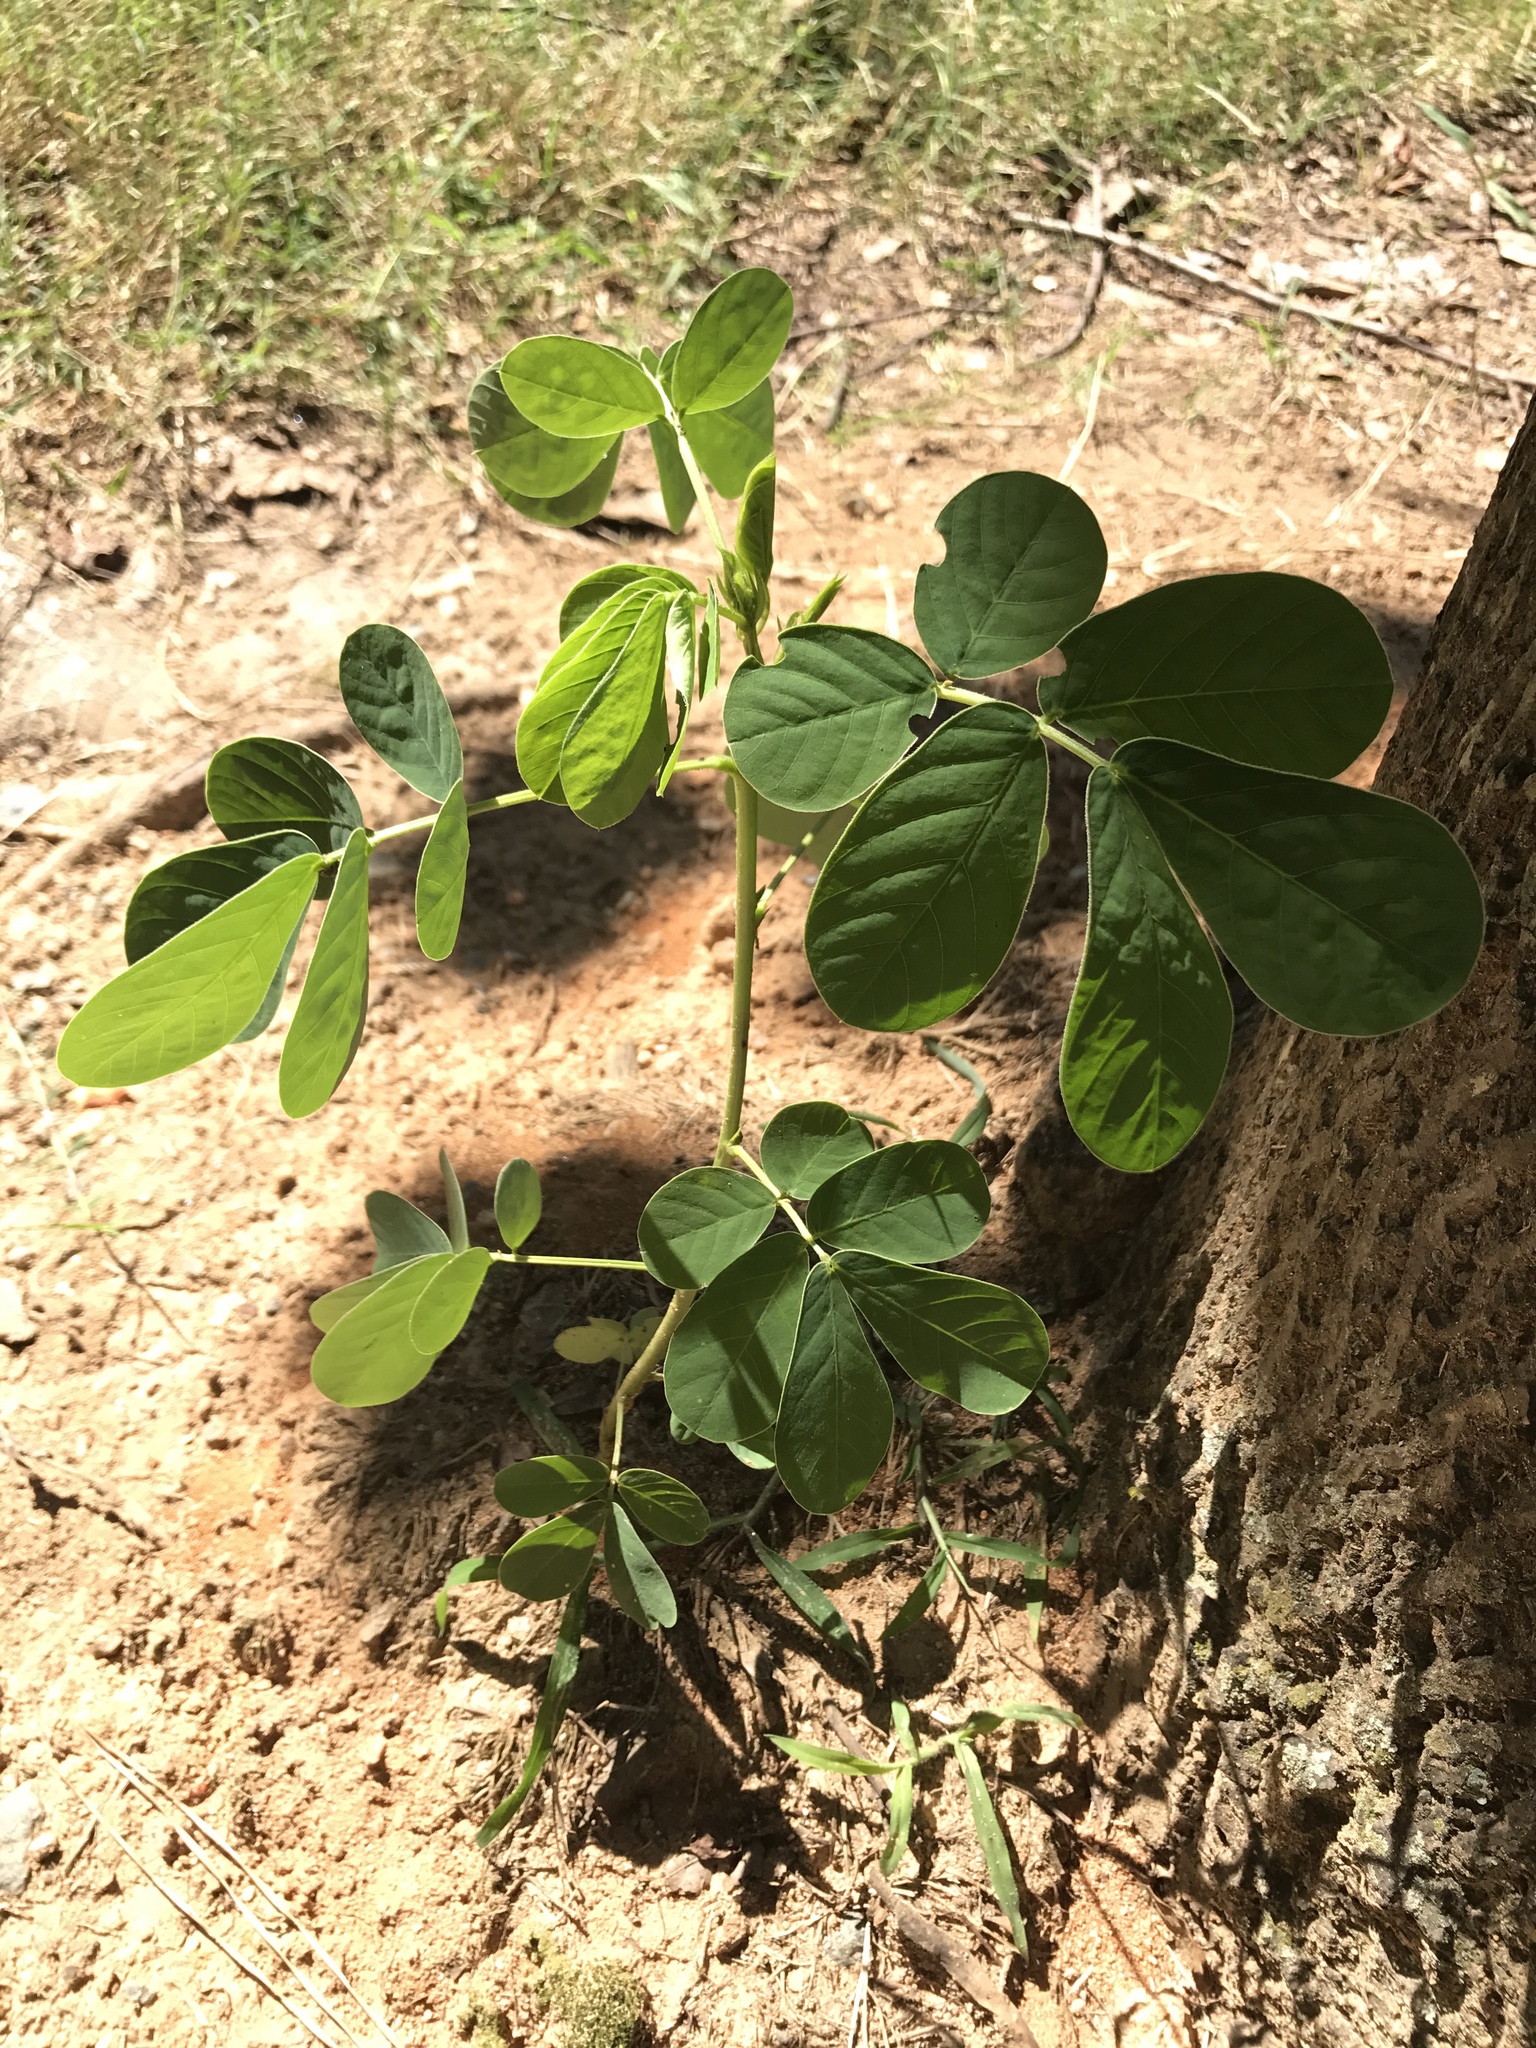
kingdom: Plantae
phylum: Tracheophyta
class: Magnoliopsida
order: Fabales
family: Fabaceae
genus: Senna
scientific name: Senna obtusifolia
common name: Java-bean
